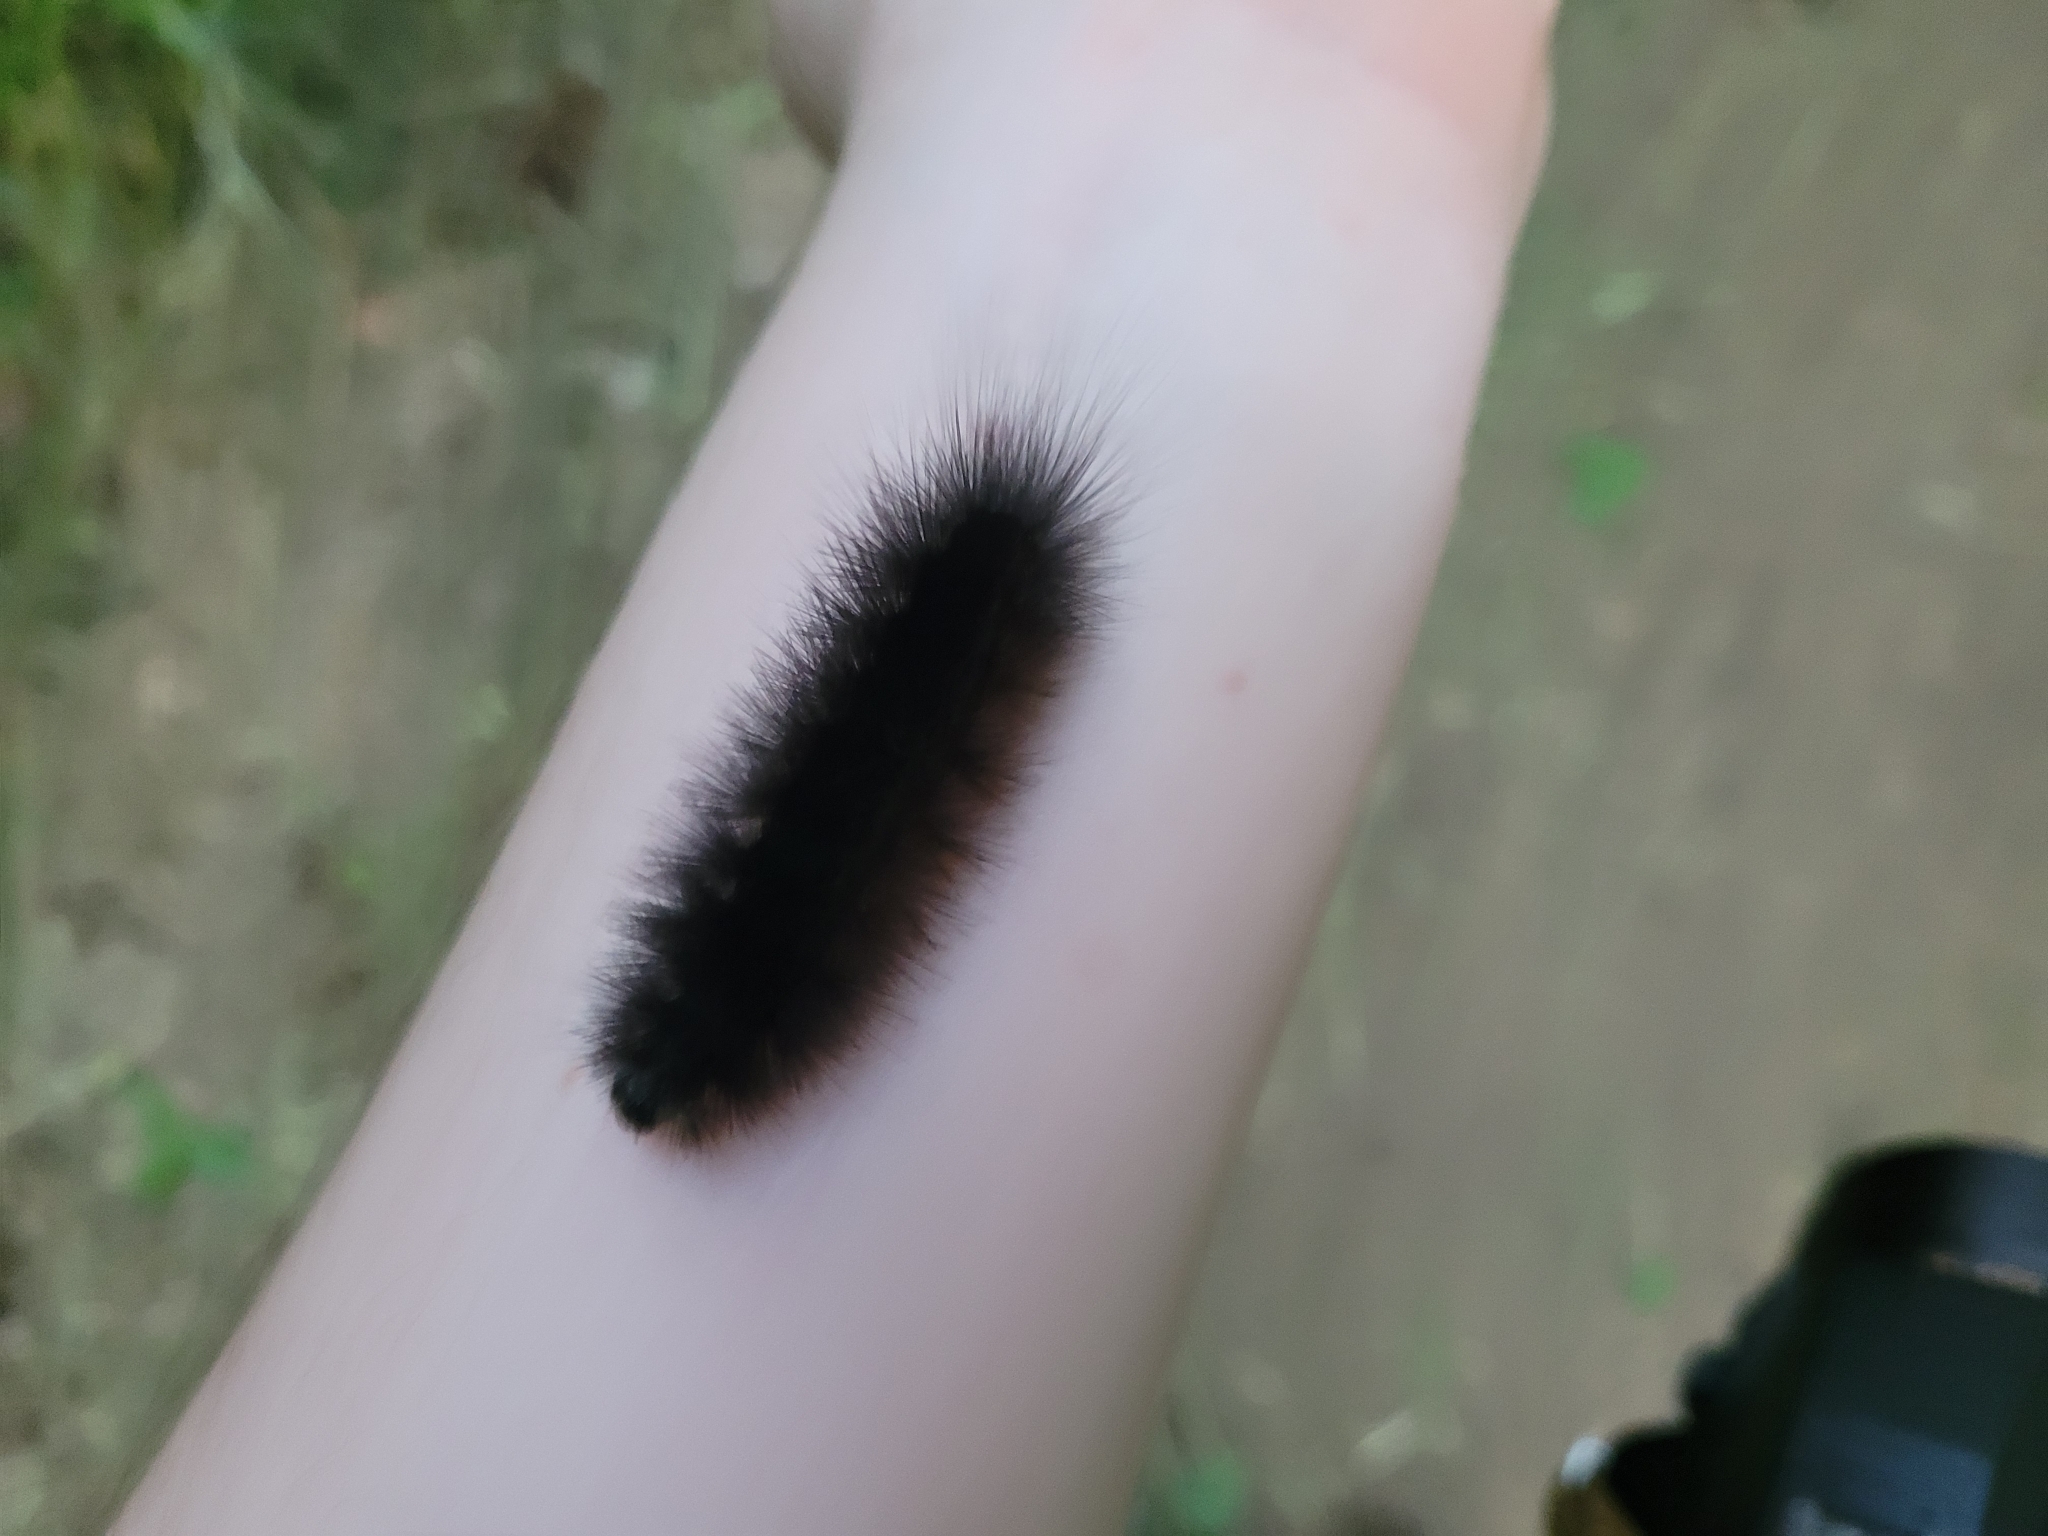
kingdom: Animalia
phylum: Arthropoda
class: Insecta
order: Lepidoptera
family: Erebidae
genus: Estigmene
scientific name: Estigmene acrea
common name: Salt marsh moth
